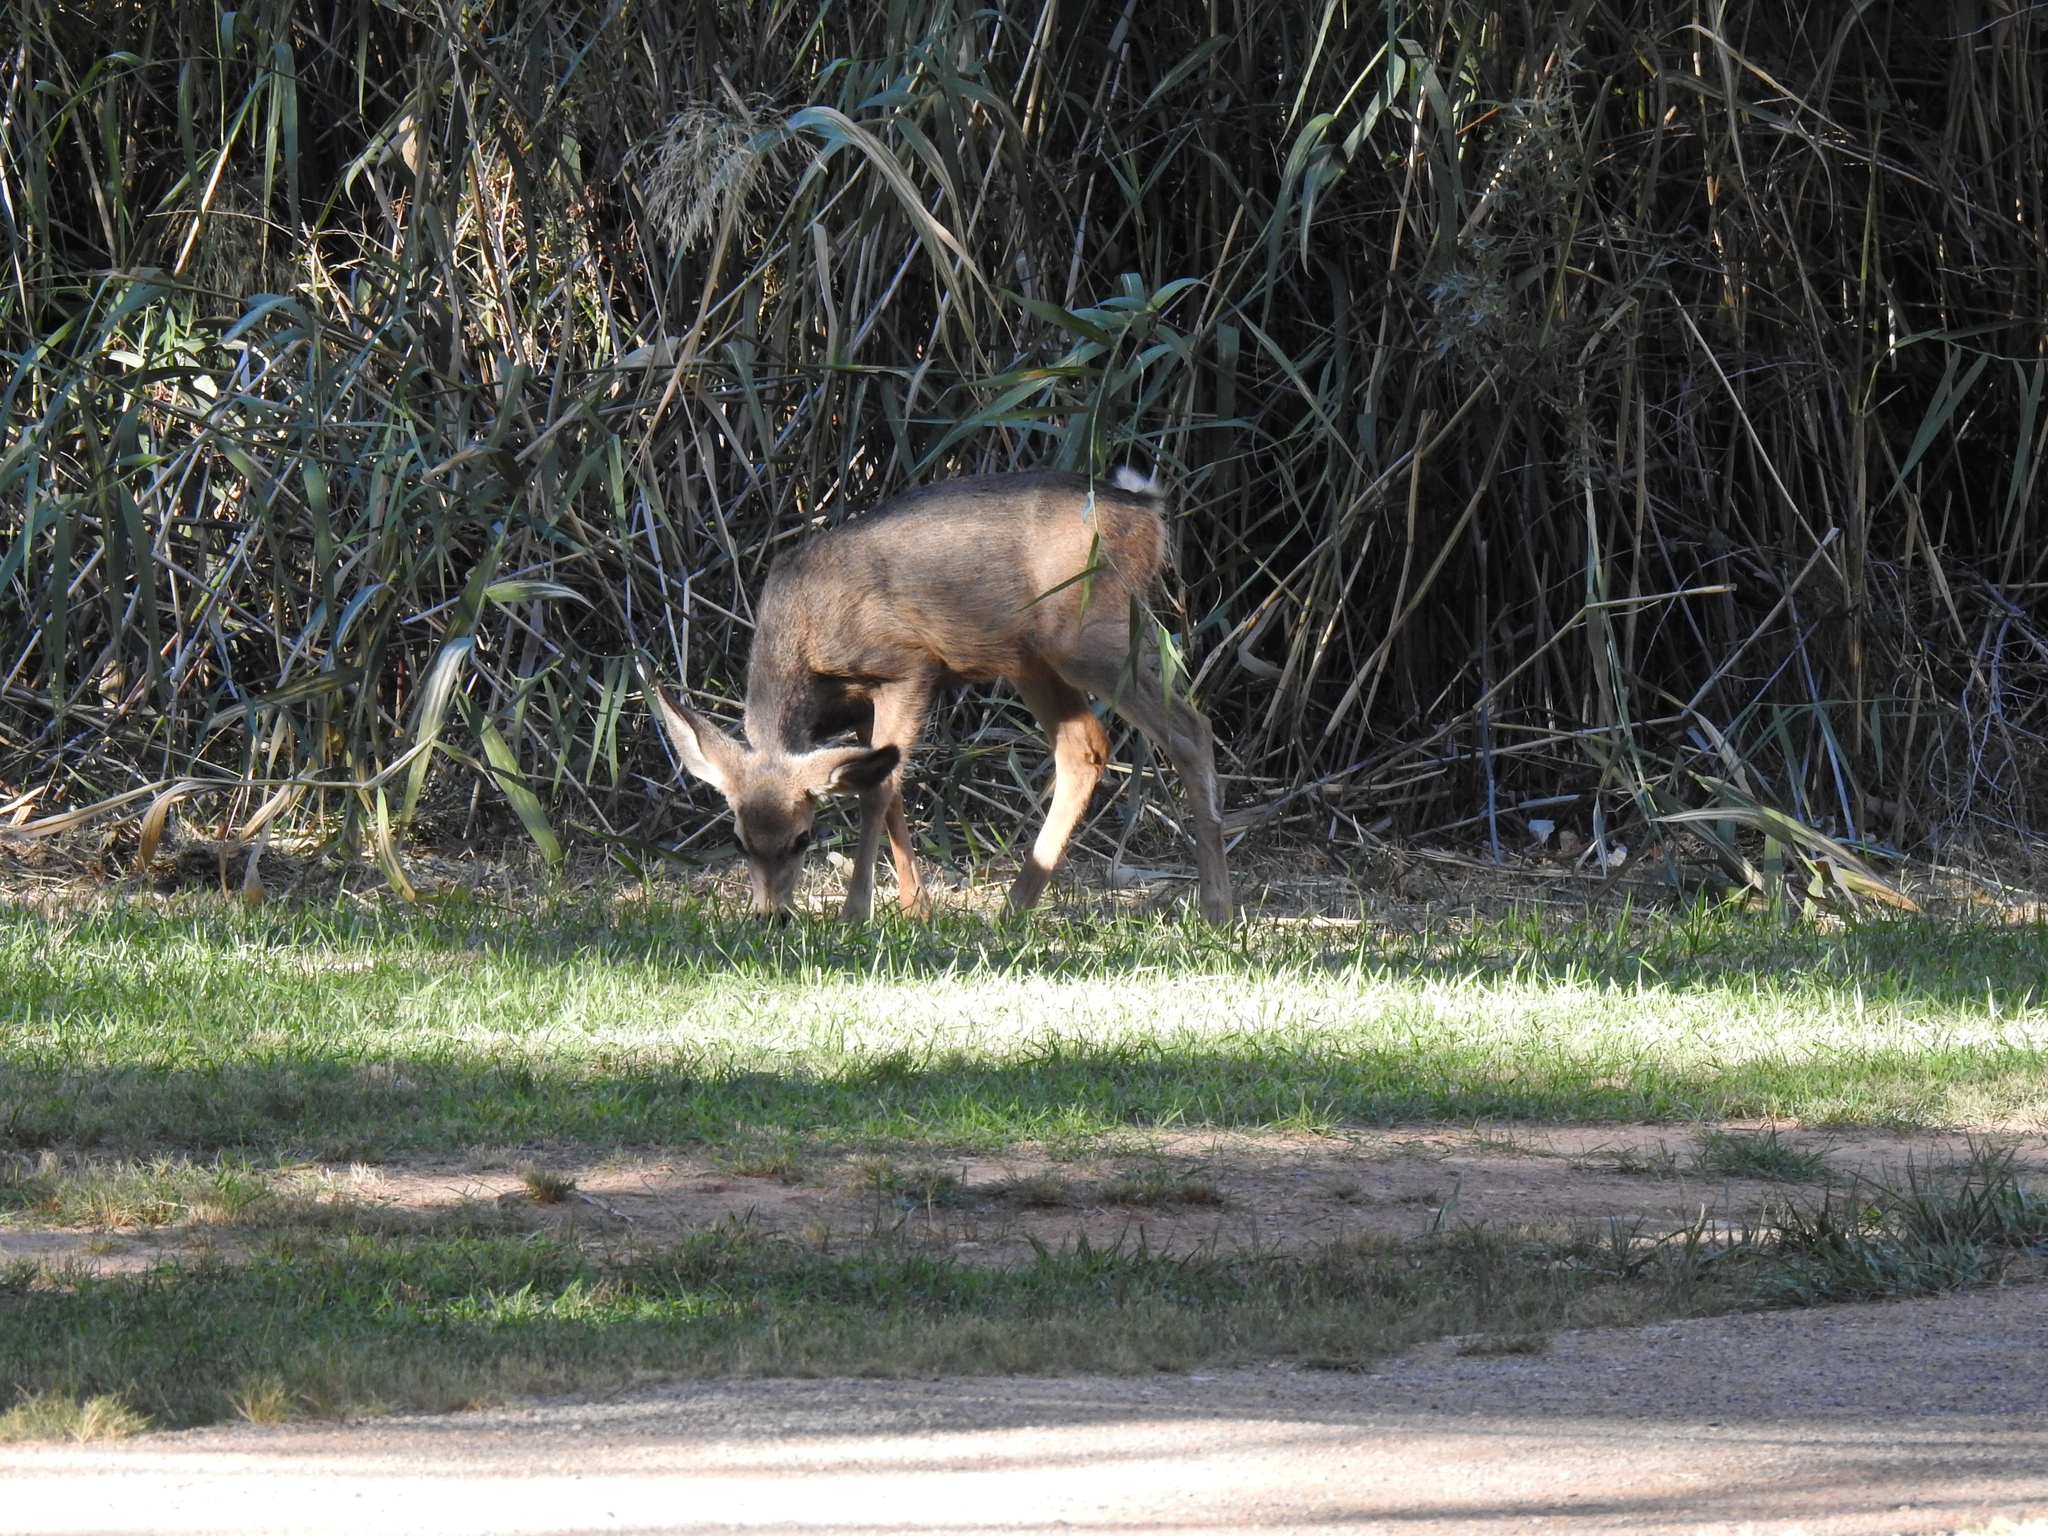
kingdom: Animalia
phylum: Chordata
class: Mammalia
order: Artiodactyla
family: Cervidae
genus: Odocoileus
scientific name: Odocoileus hemionus
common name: Mule deer
